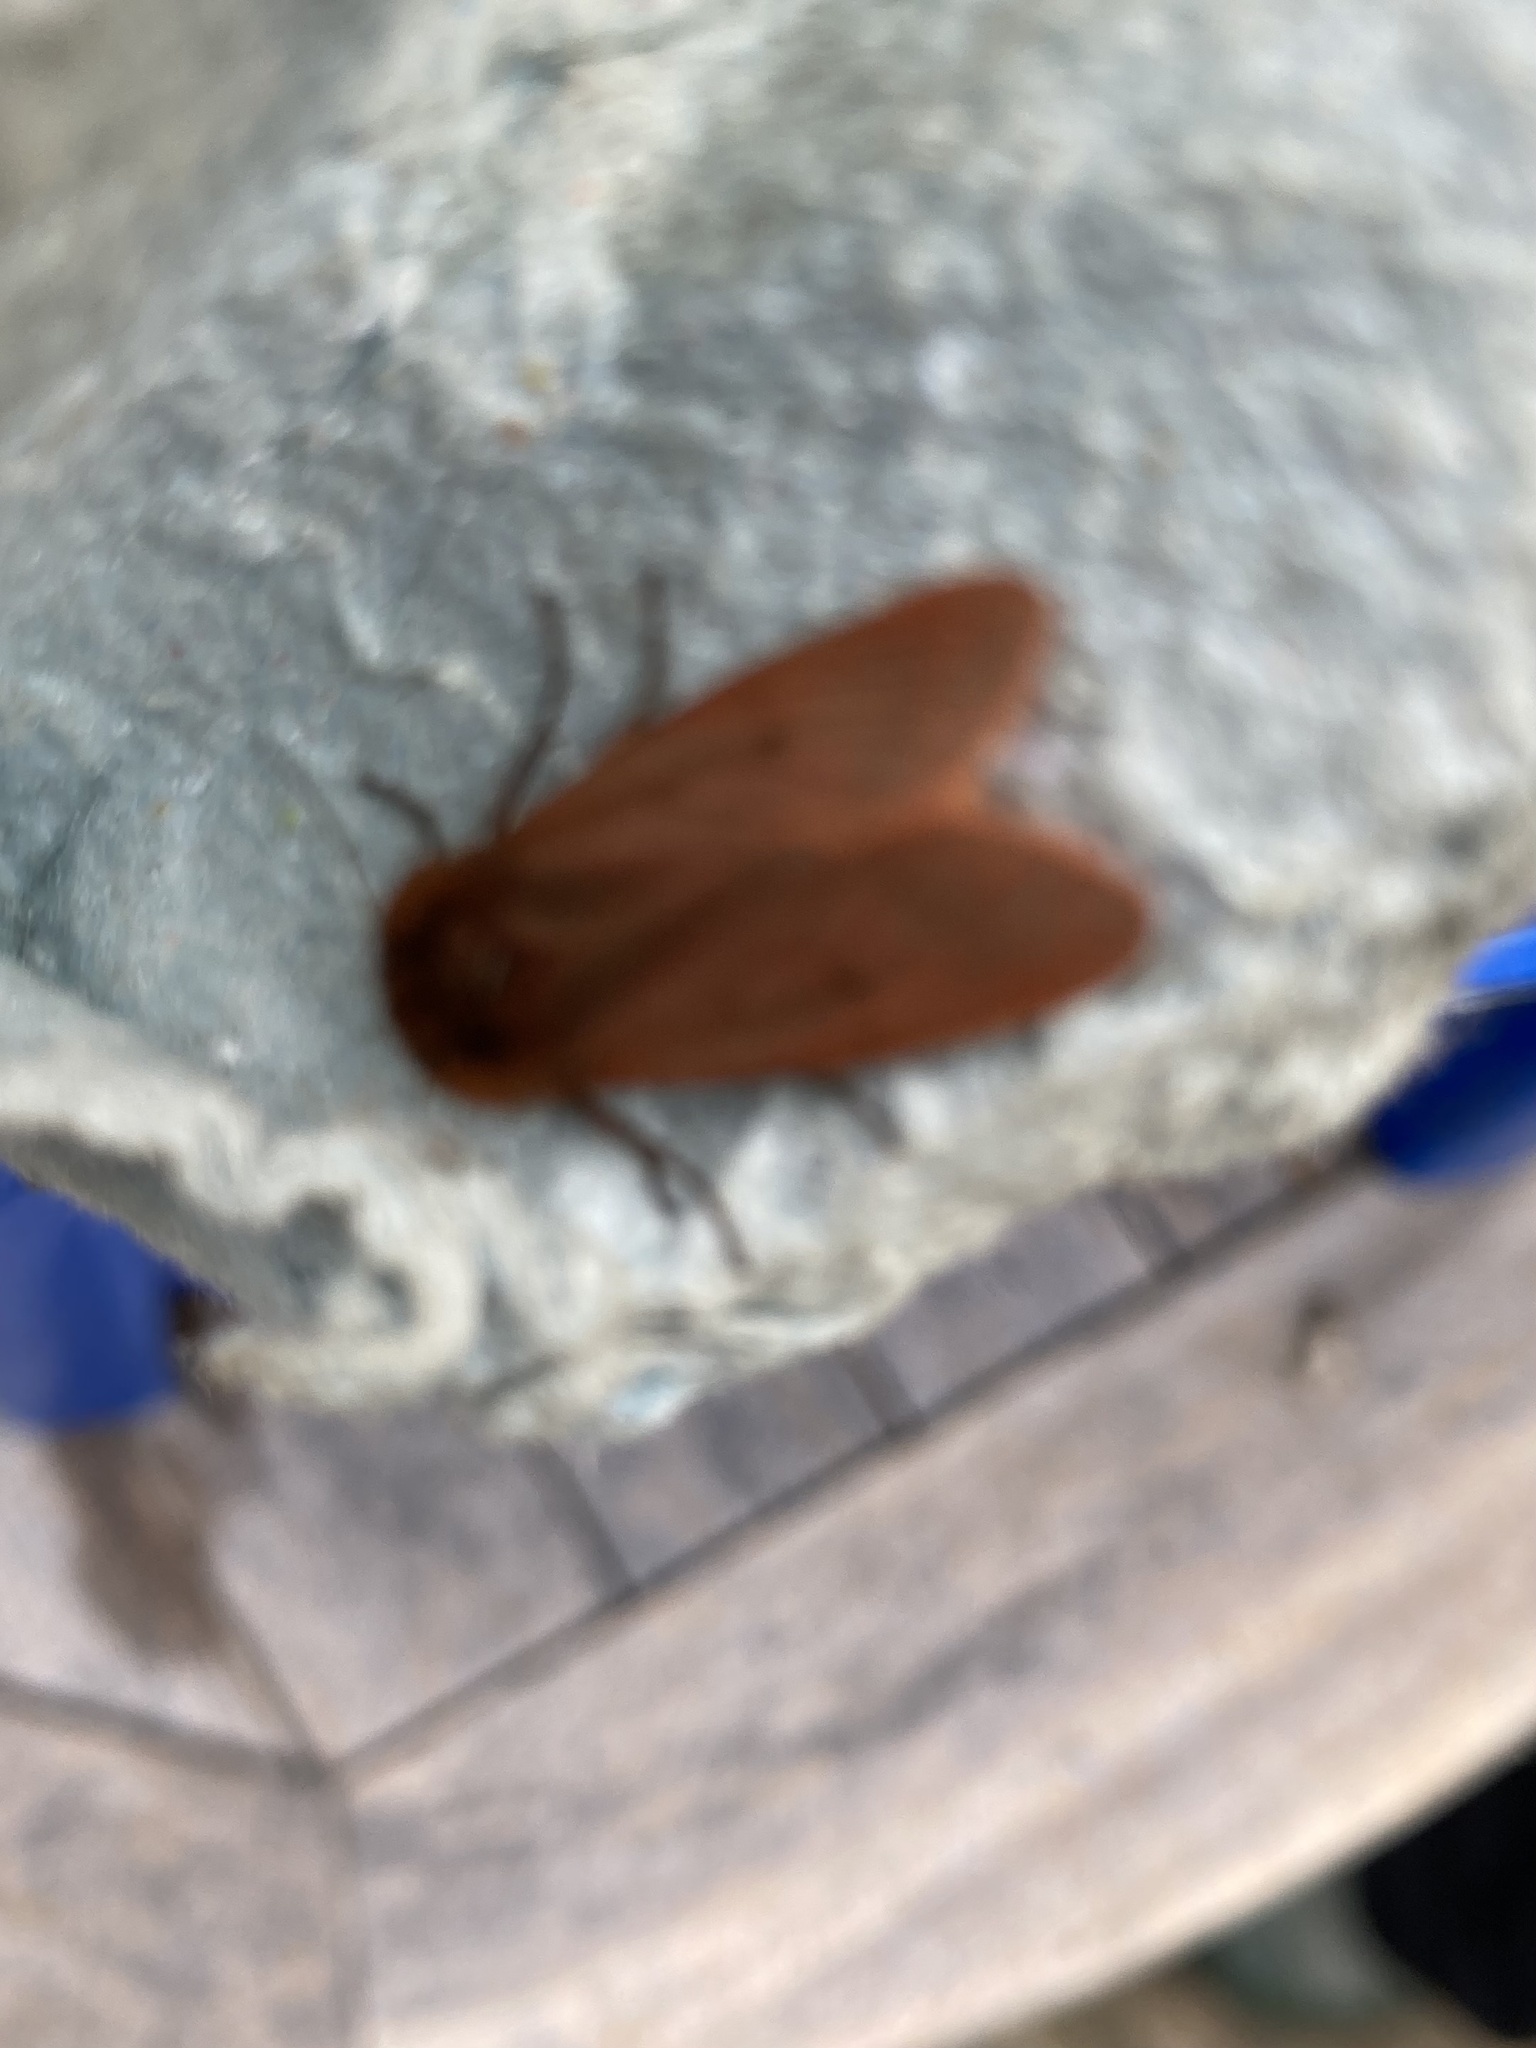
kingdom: Animalia
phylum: Arthropoda
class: Insecta
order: Lepidoptera
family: Erebidae
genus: Phragmatobia
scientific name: Phragmatobia fuliginosa
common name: Ruby tiger
